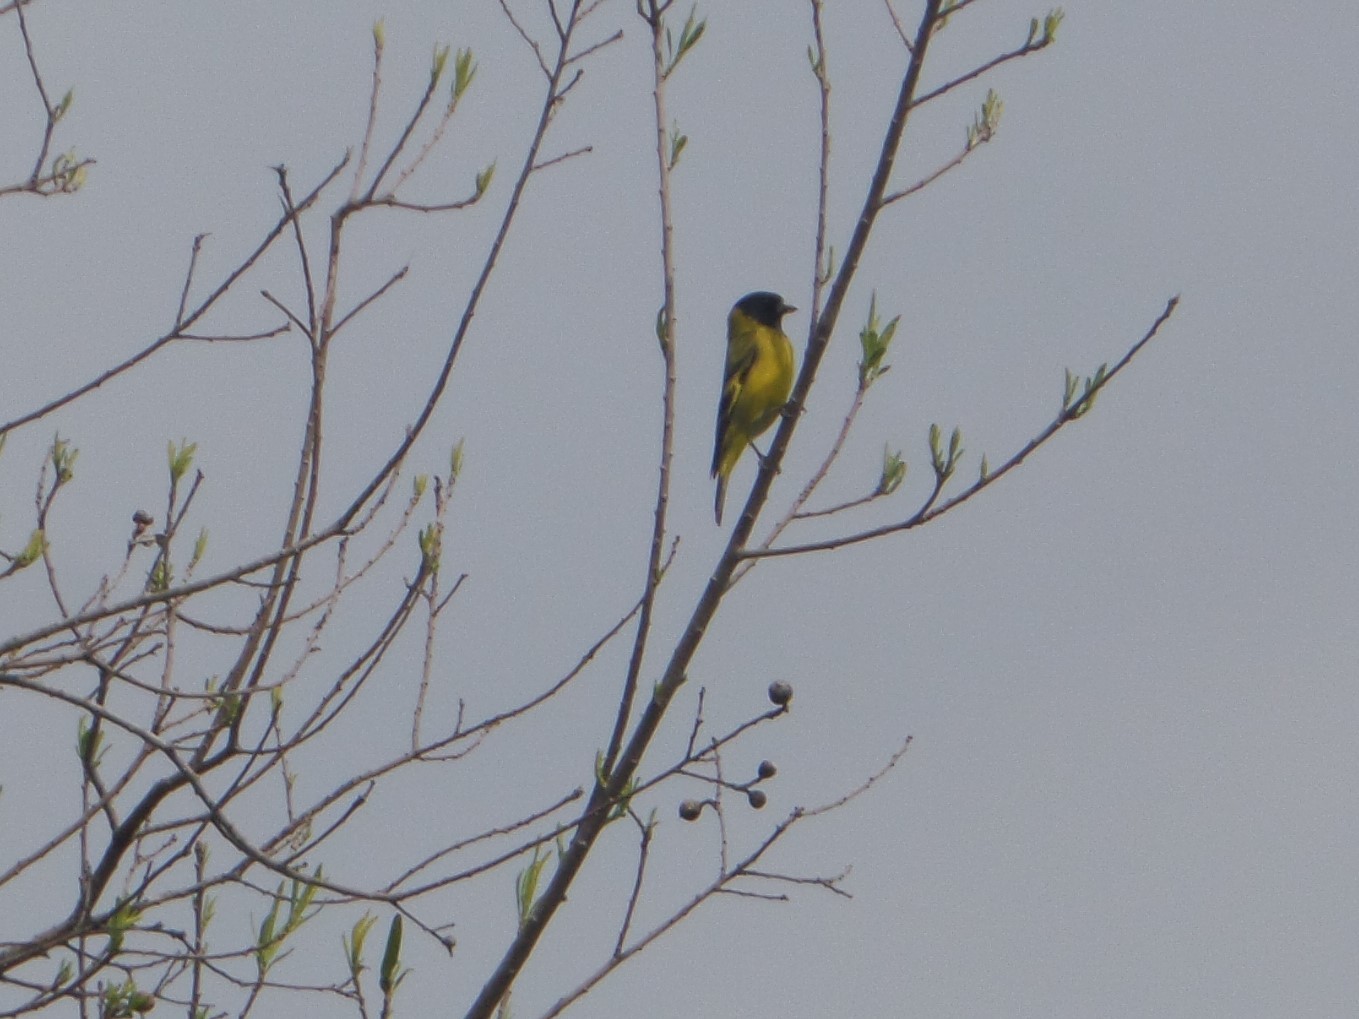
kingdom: Animalia
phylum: Chordata
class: Aves
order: Passeriformes
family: Fringillidae
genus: Spinus
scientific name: Spinus magellanicus
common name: Hooded siskin
